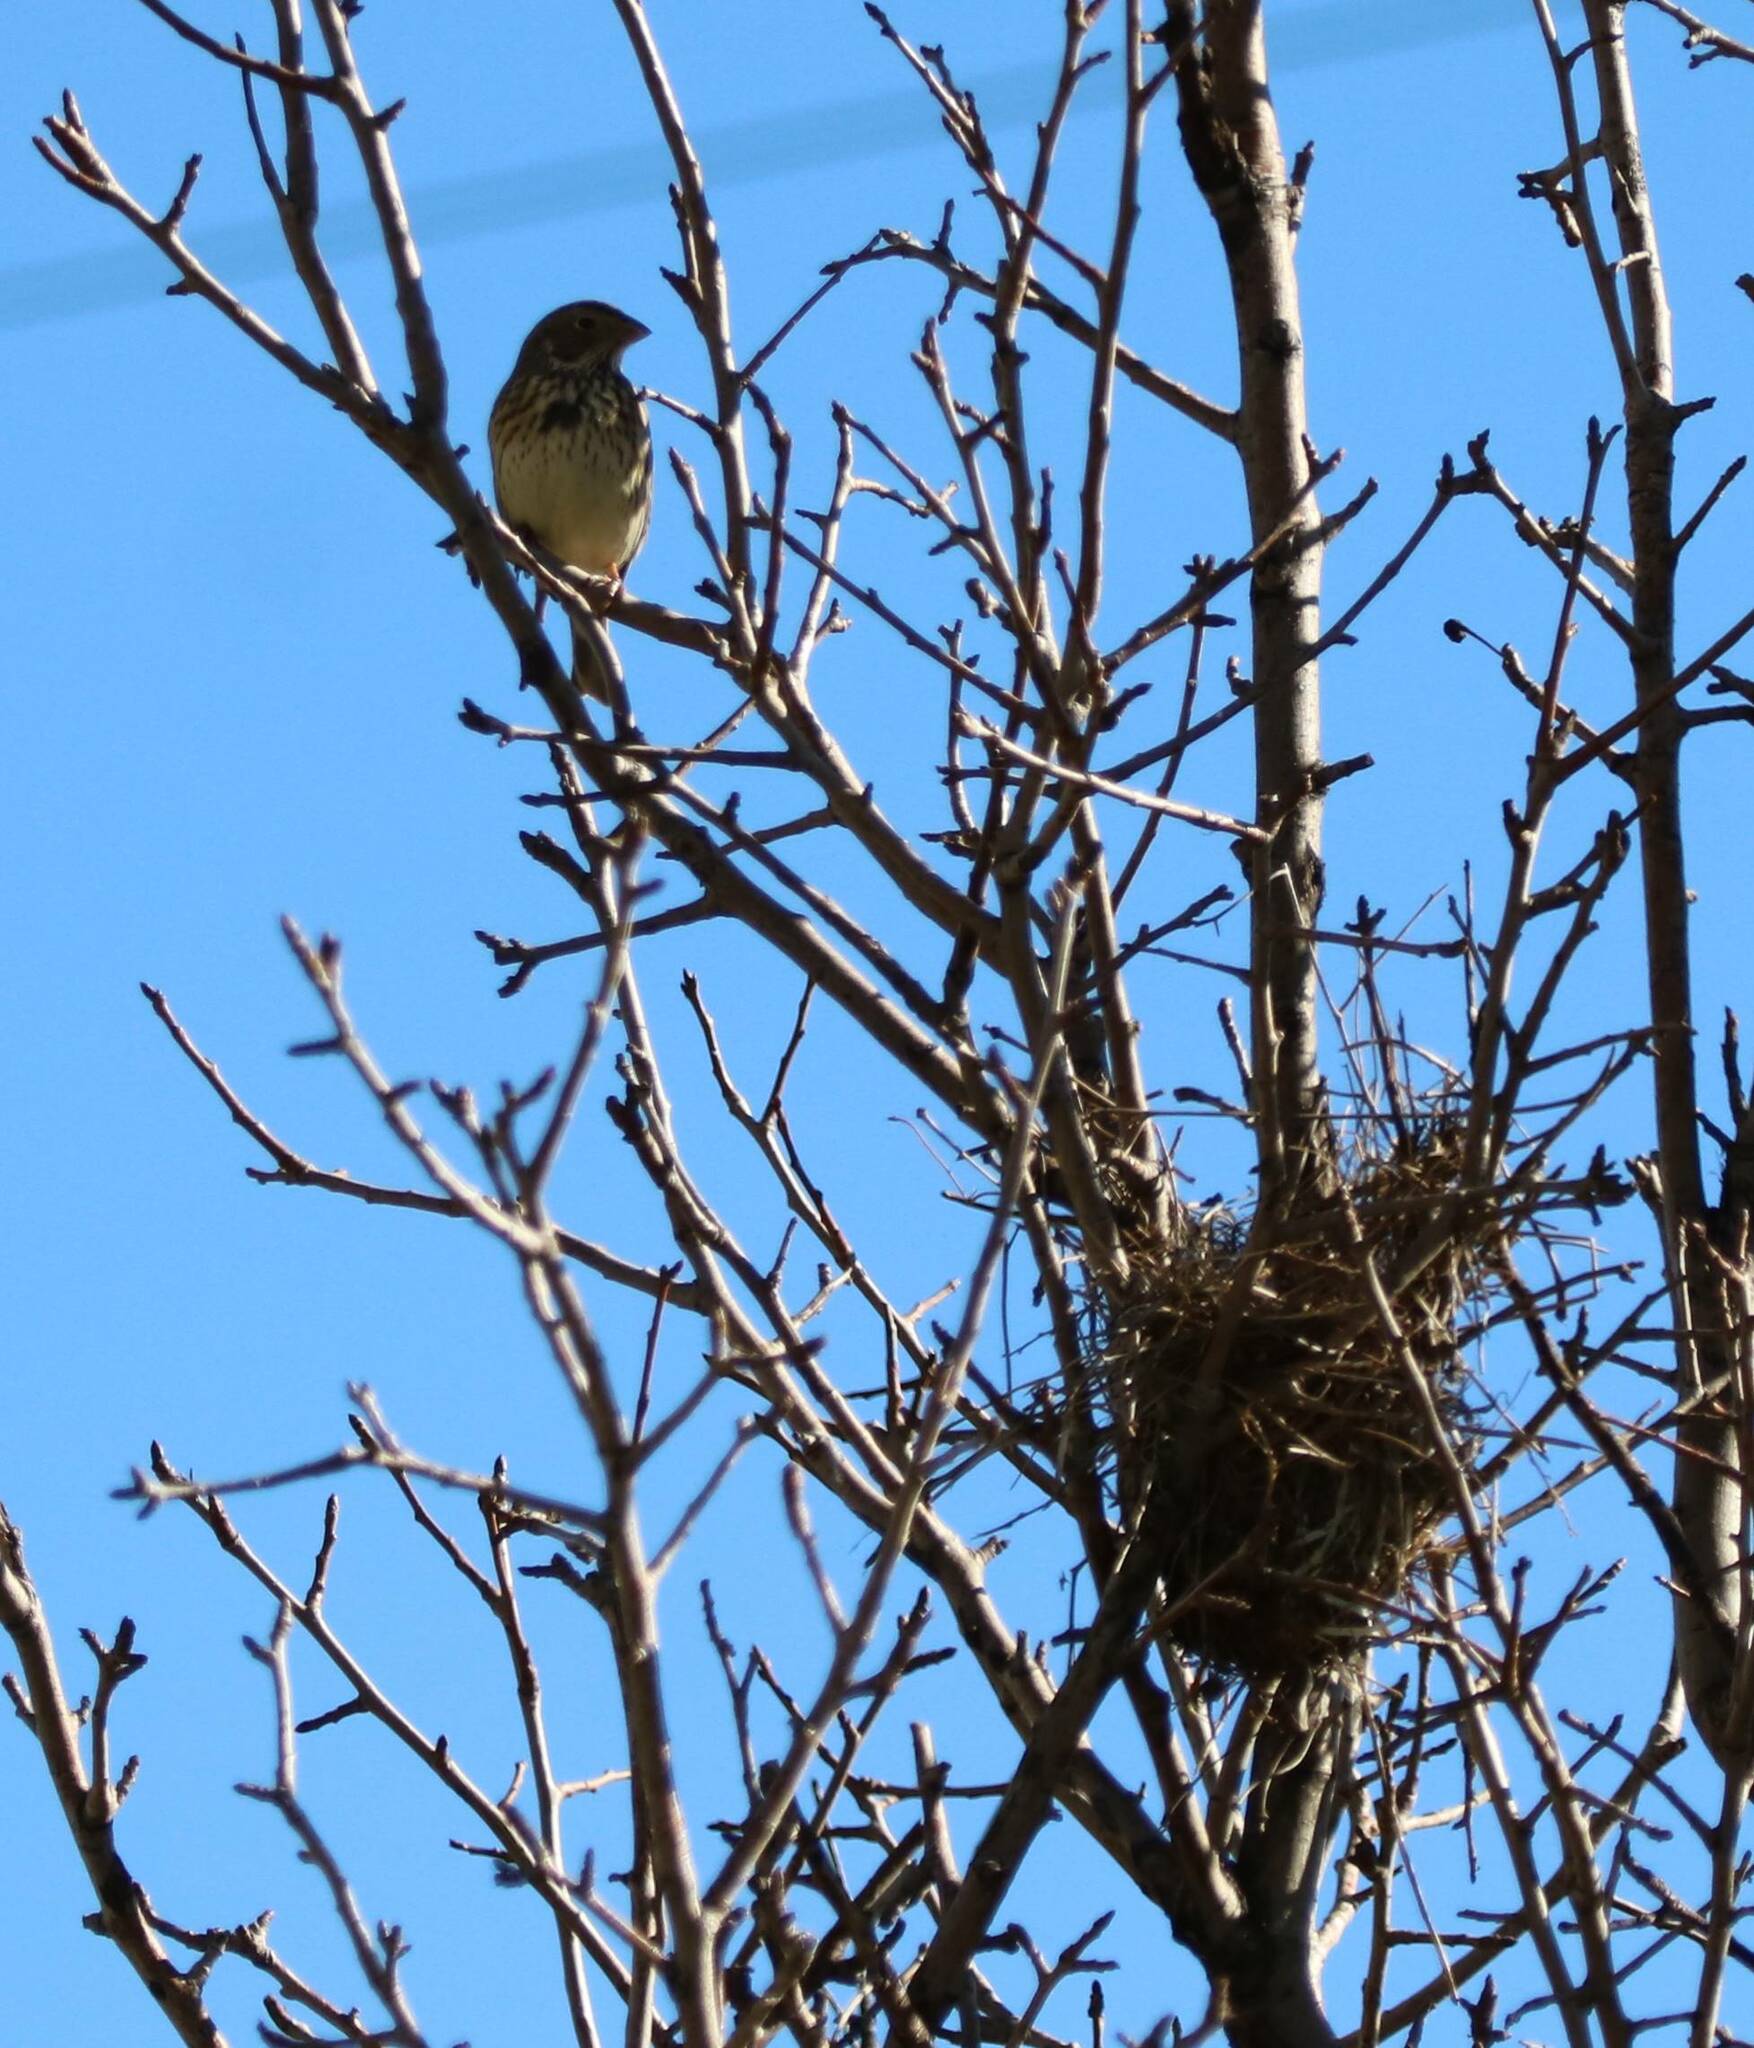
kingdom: Animalia
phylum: Chordata
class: Aves
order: Passeriformes
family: Emberizidae
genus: Emberiza
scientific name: Emberiza calandra
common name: Corn bunting
